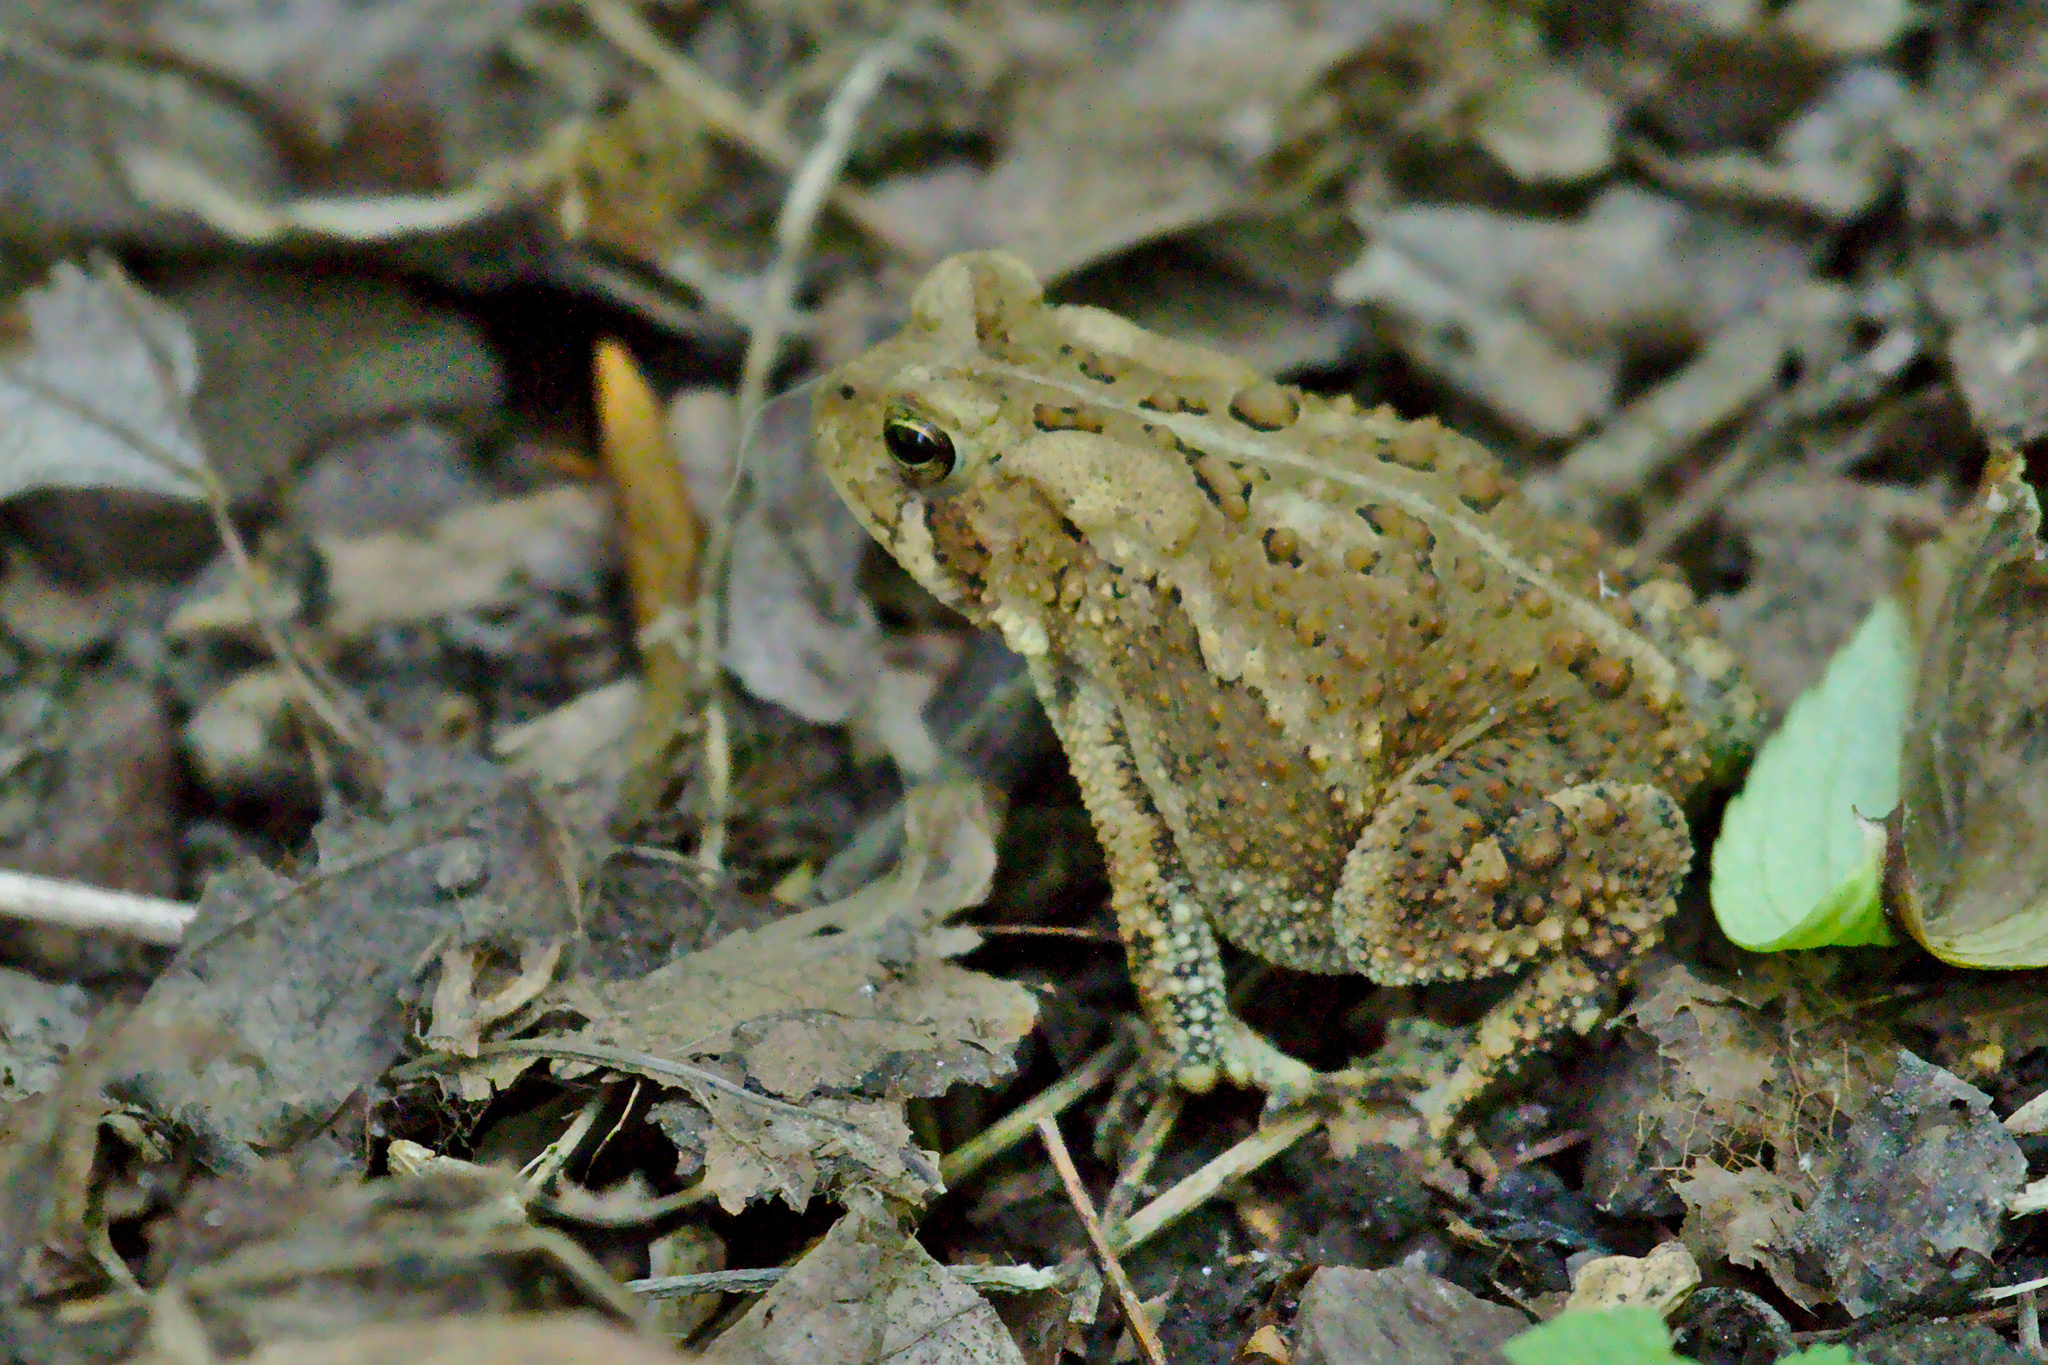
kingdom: Animalia
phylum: Chordata
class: Amphibia
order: Anura
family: Bufonidae
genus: Anaxyrus
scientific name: Anaxyrus americanus
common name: American toad
